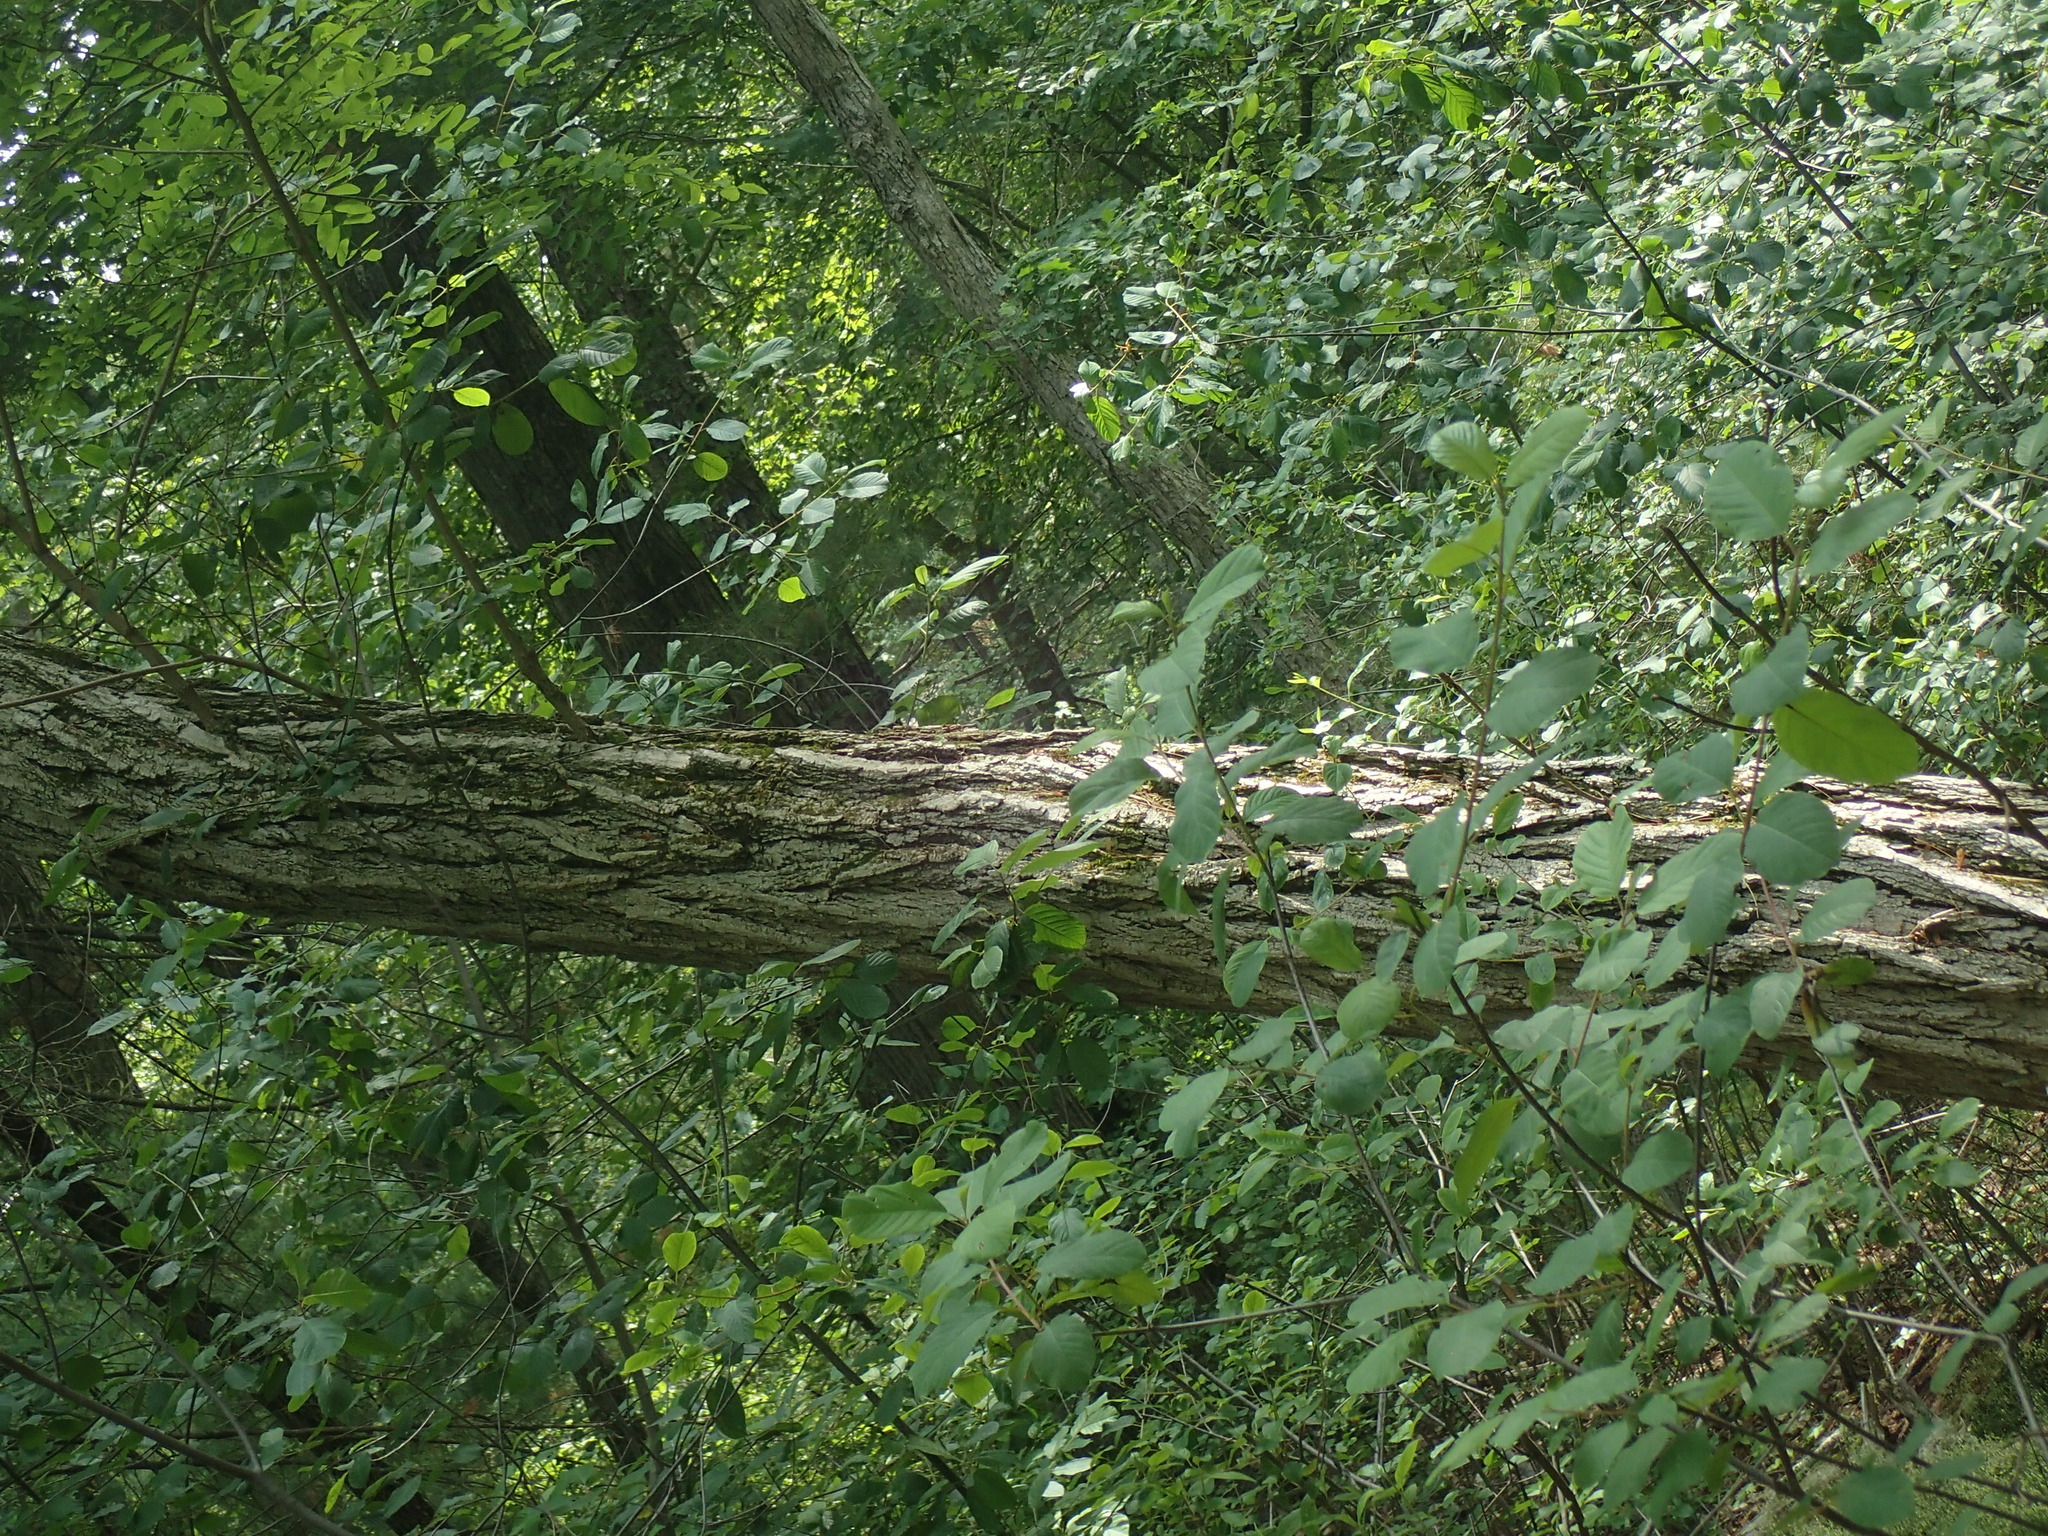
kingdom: Plantae
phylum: Tracheophyta
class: Magnoliopsida
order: Fabales
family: Fabaceae
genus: Robinia
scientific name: Robinia pseudoacacia
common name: Black locust
